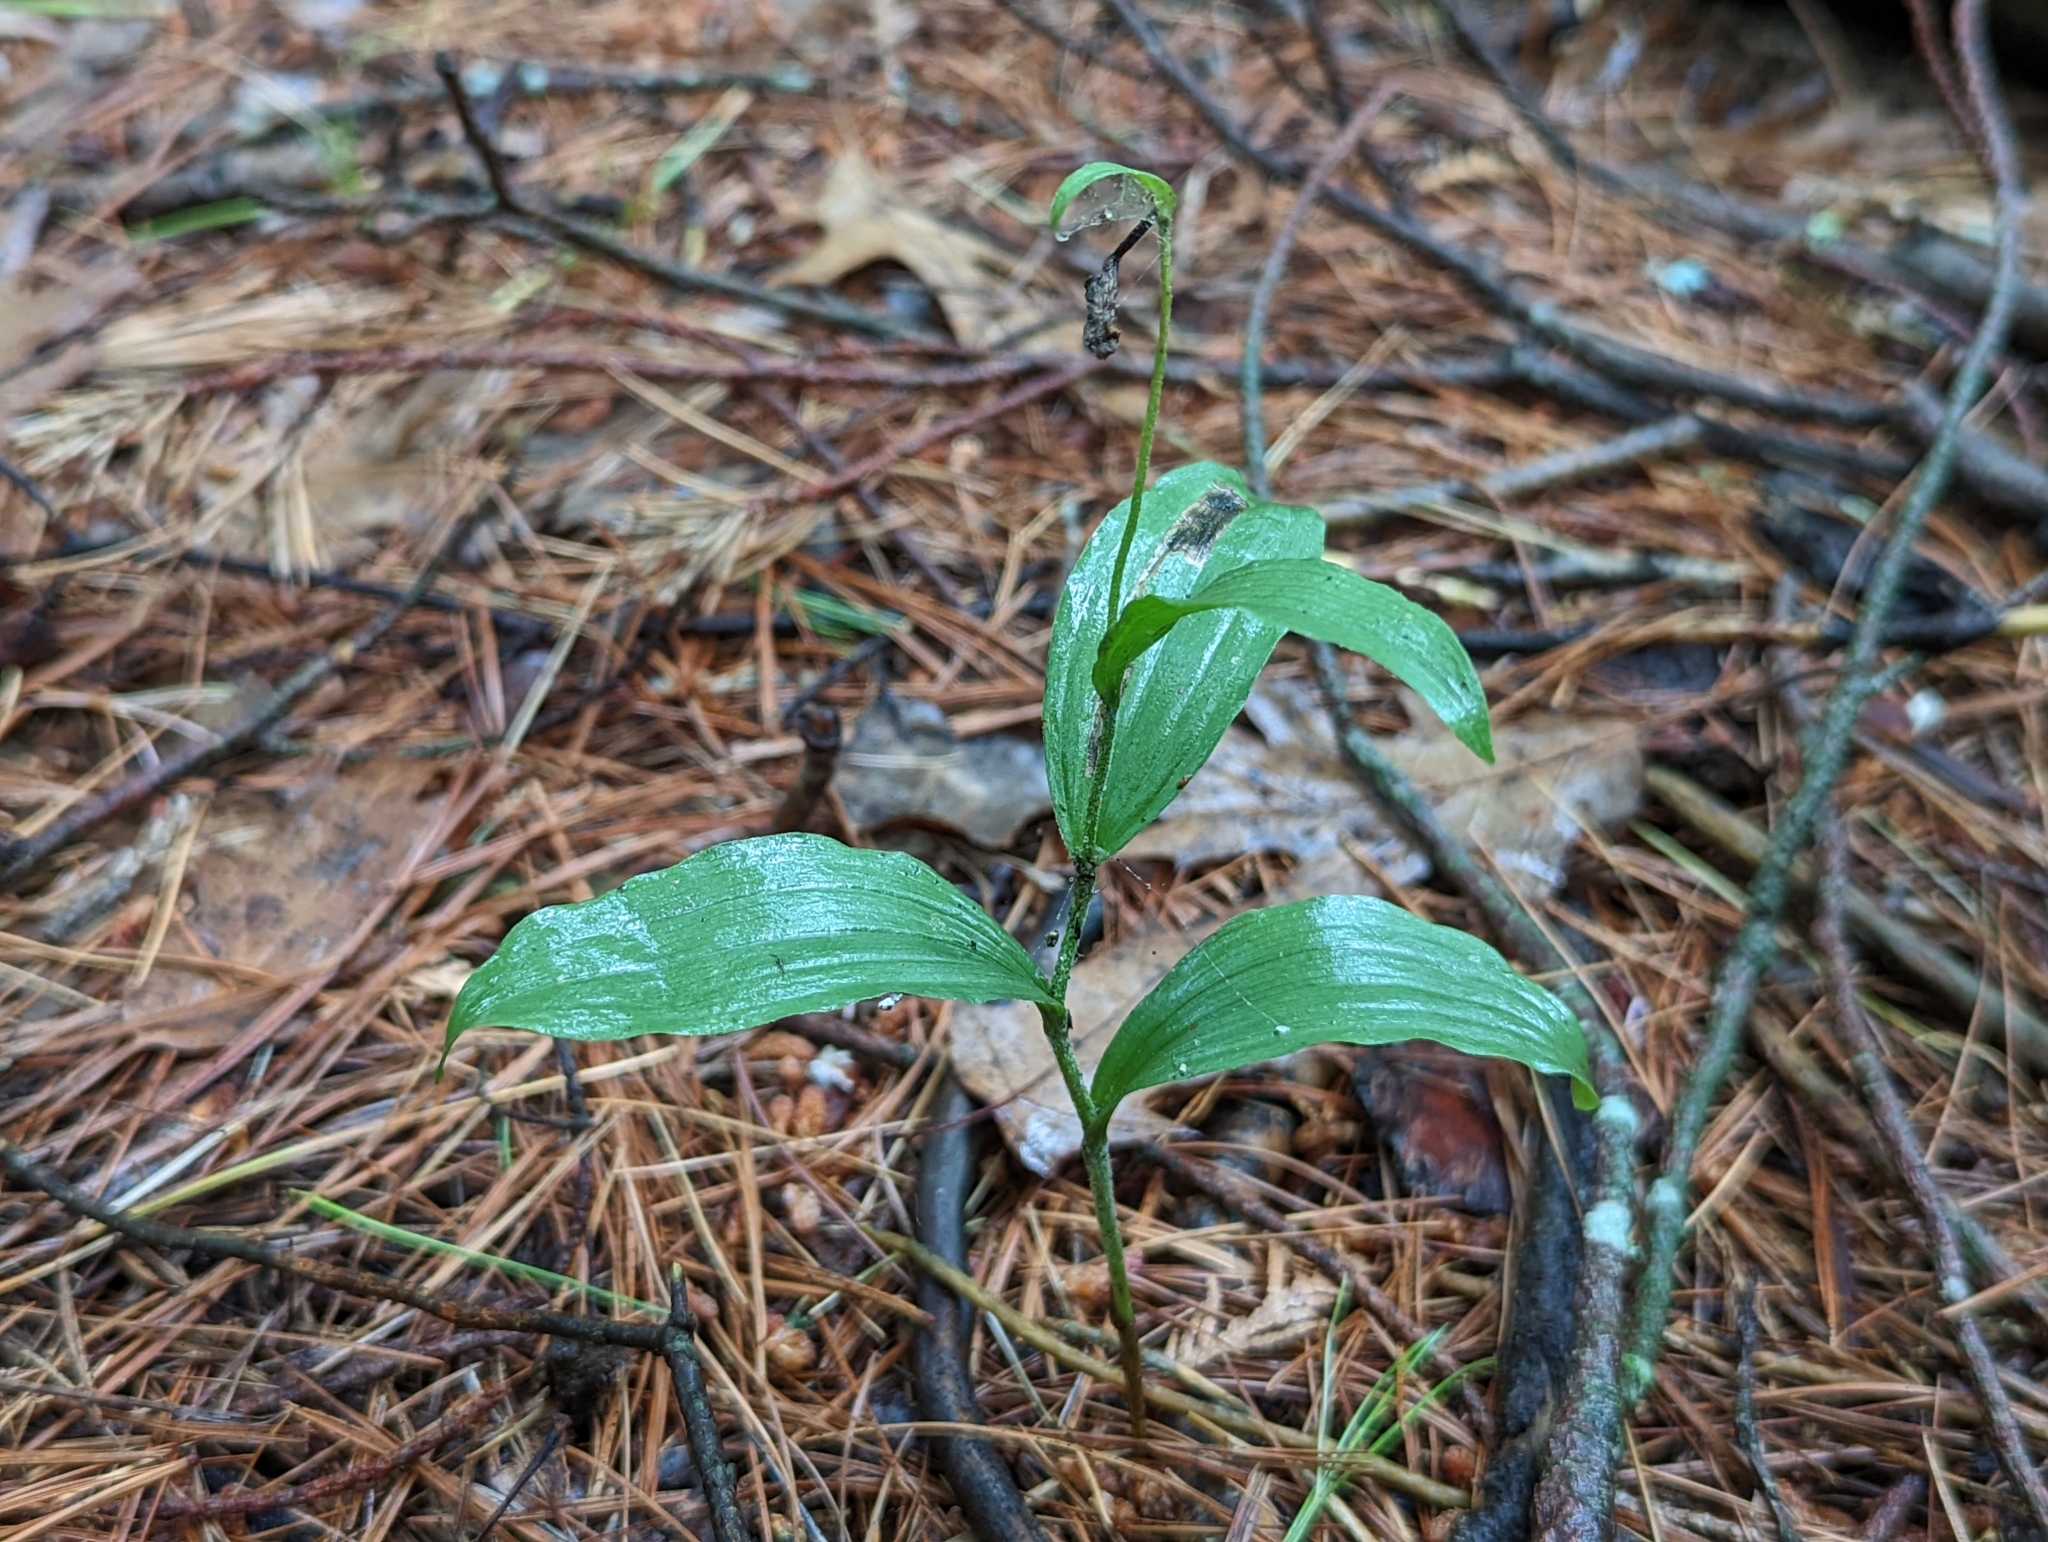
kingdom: Plantae
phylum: Tracheophyta
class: Liliopsida
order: Asparagales
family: Orchidaceae
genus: Cypripedium
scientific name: Cypripedium arietinum
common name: Ram's-head
